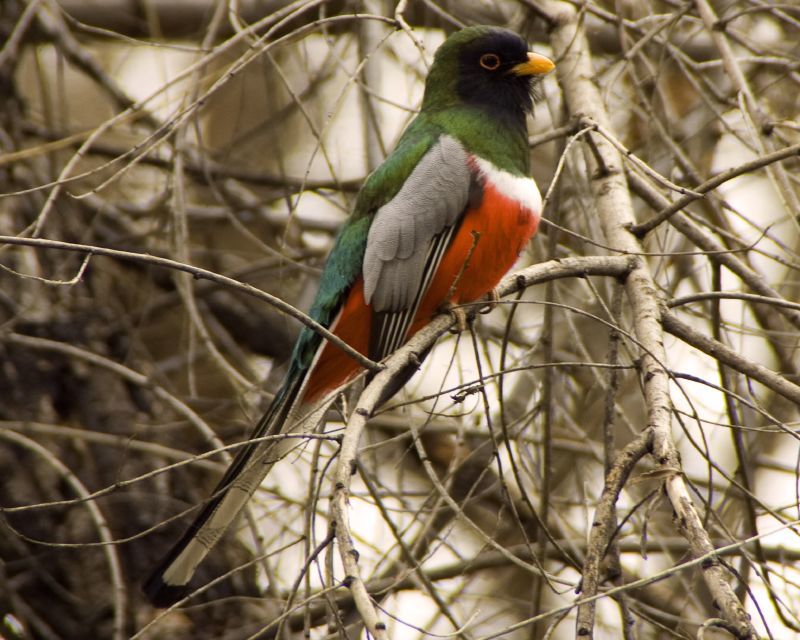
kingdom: Animalia
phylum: Chordata
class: Aves
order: Trogoniformes
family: Trogonidae
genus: Trogon
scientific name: Trogon elegans
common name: Elegant trogon
